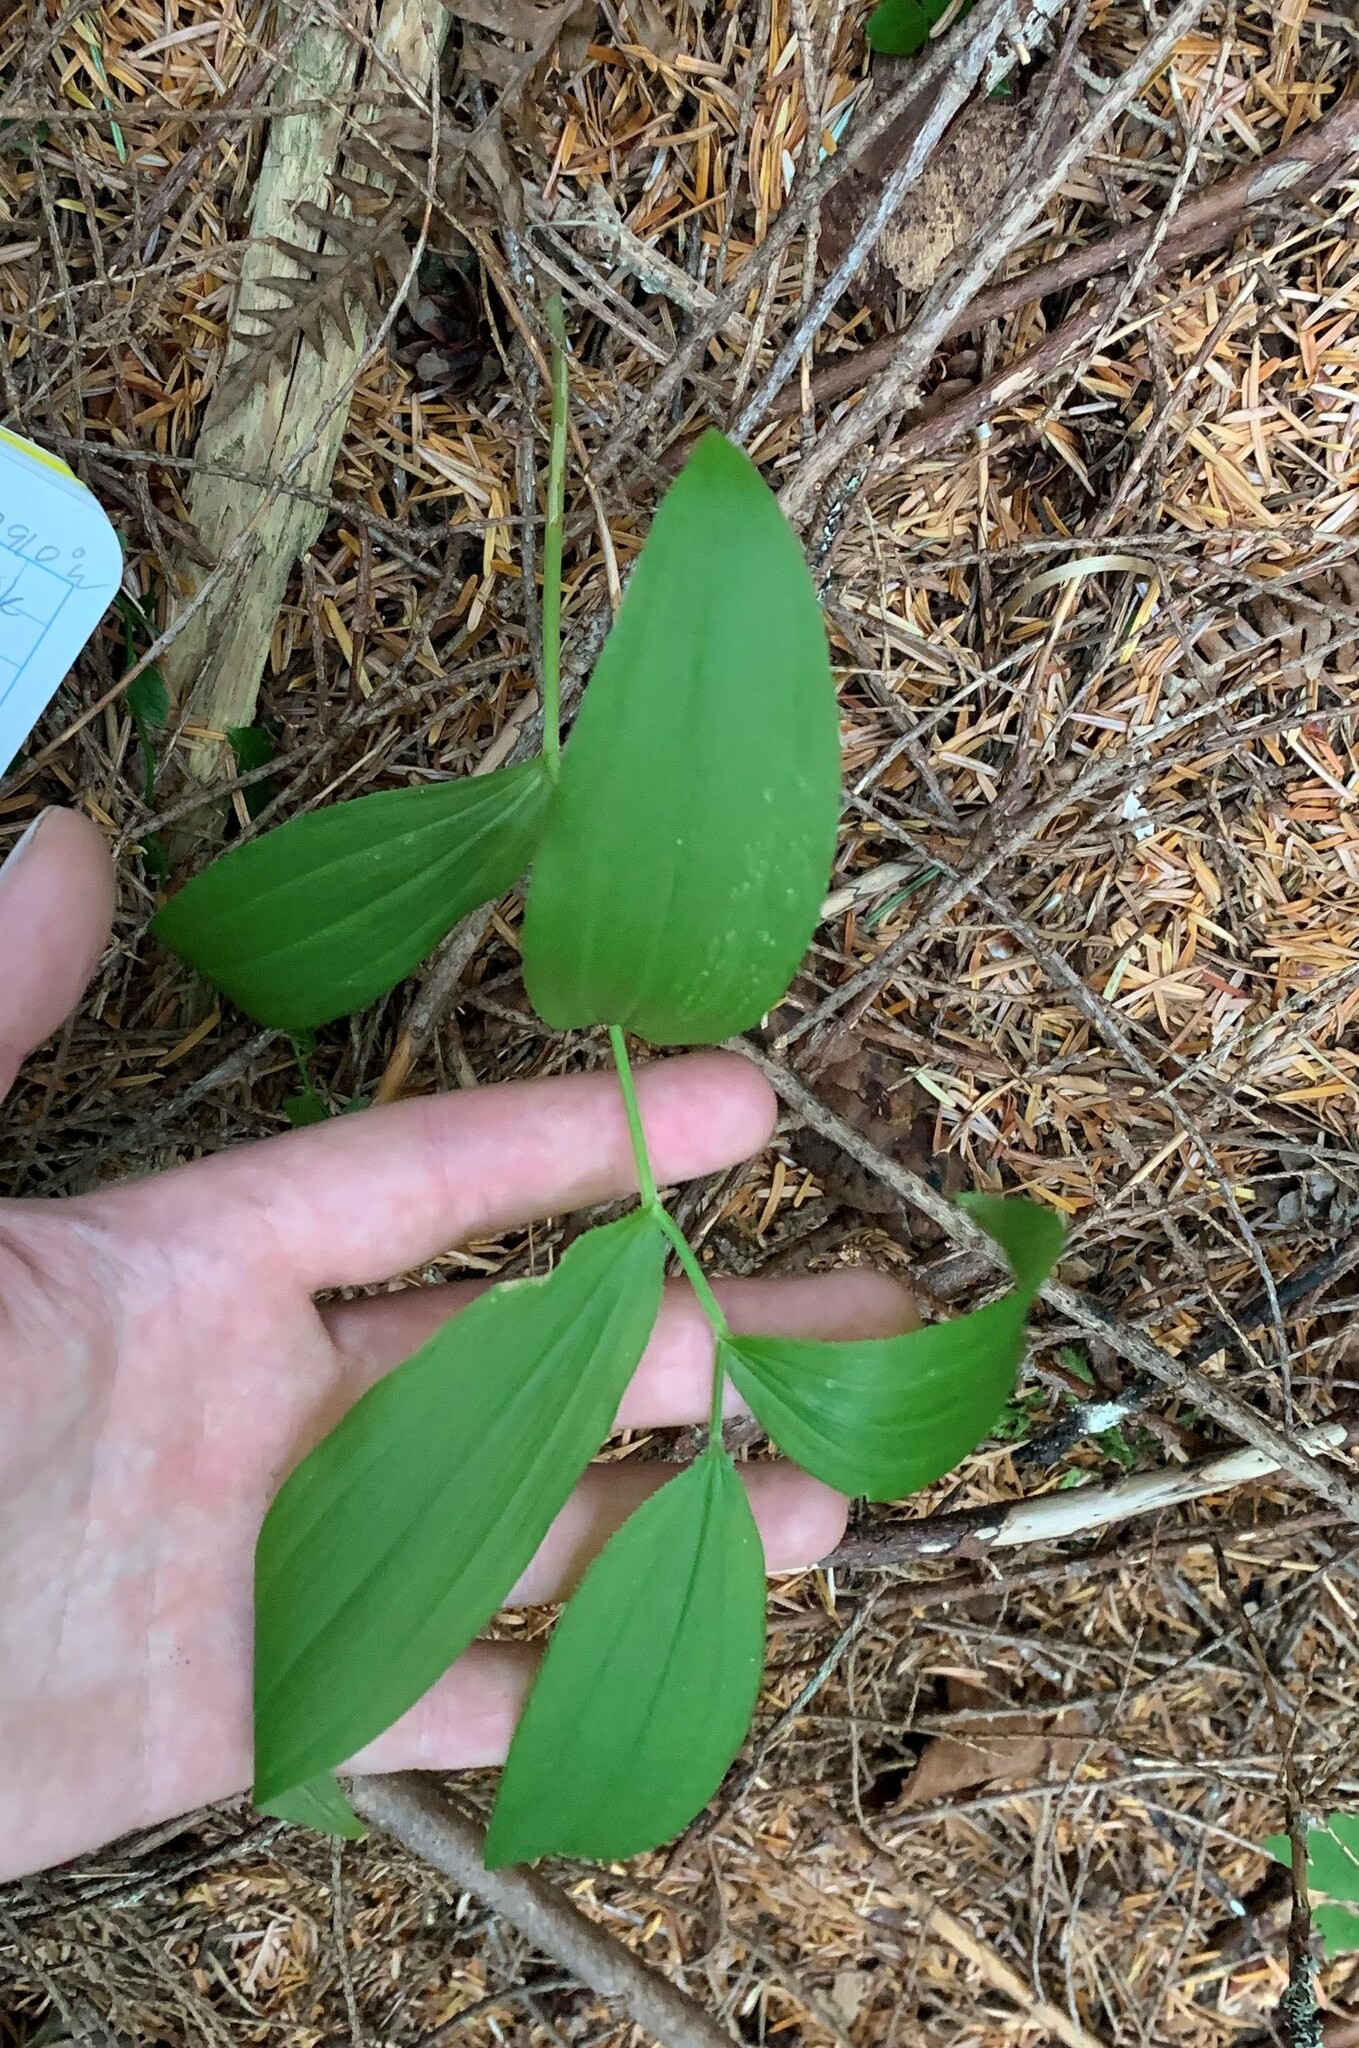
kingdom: Plantae
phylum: Tracheophyta
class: Liliopsida
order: Asparagales
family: Asparagaceae
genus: Maianthemum
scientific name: Maianthemum racemosum
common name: False spikenard
